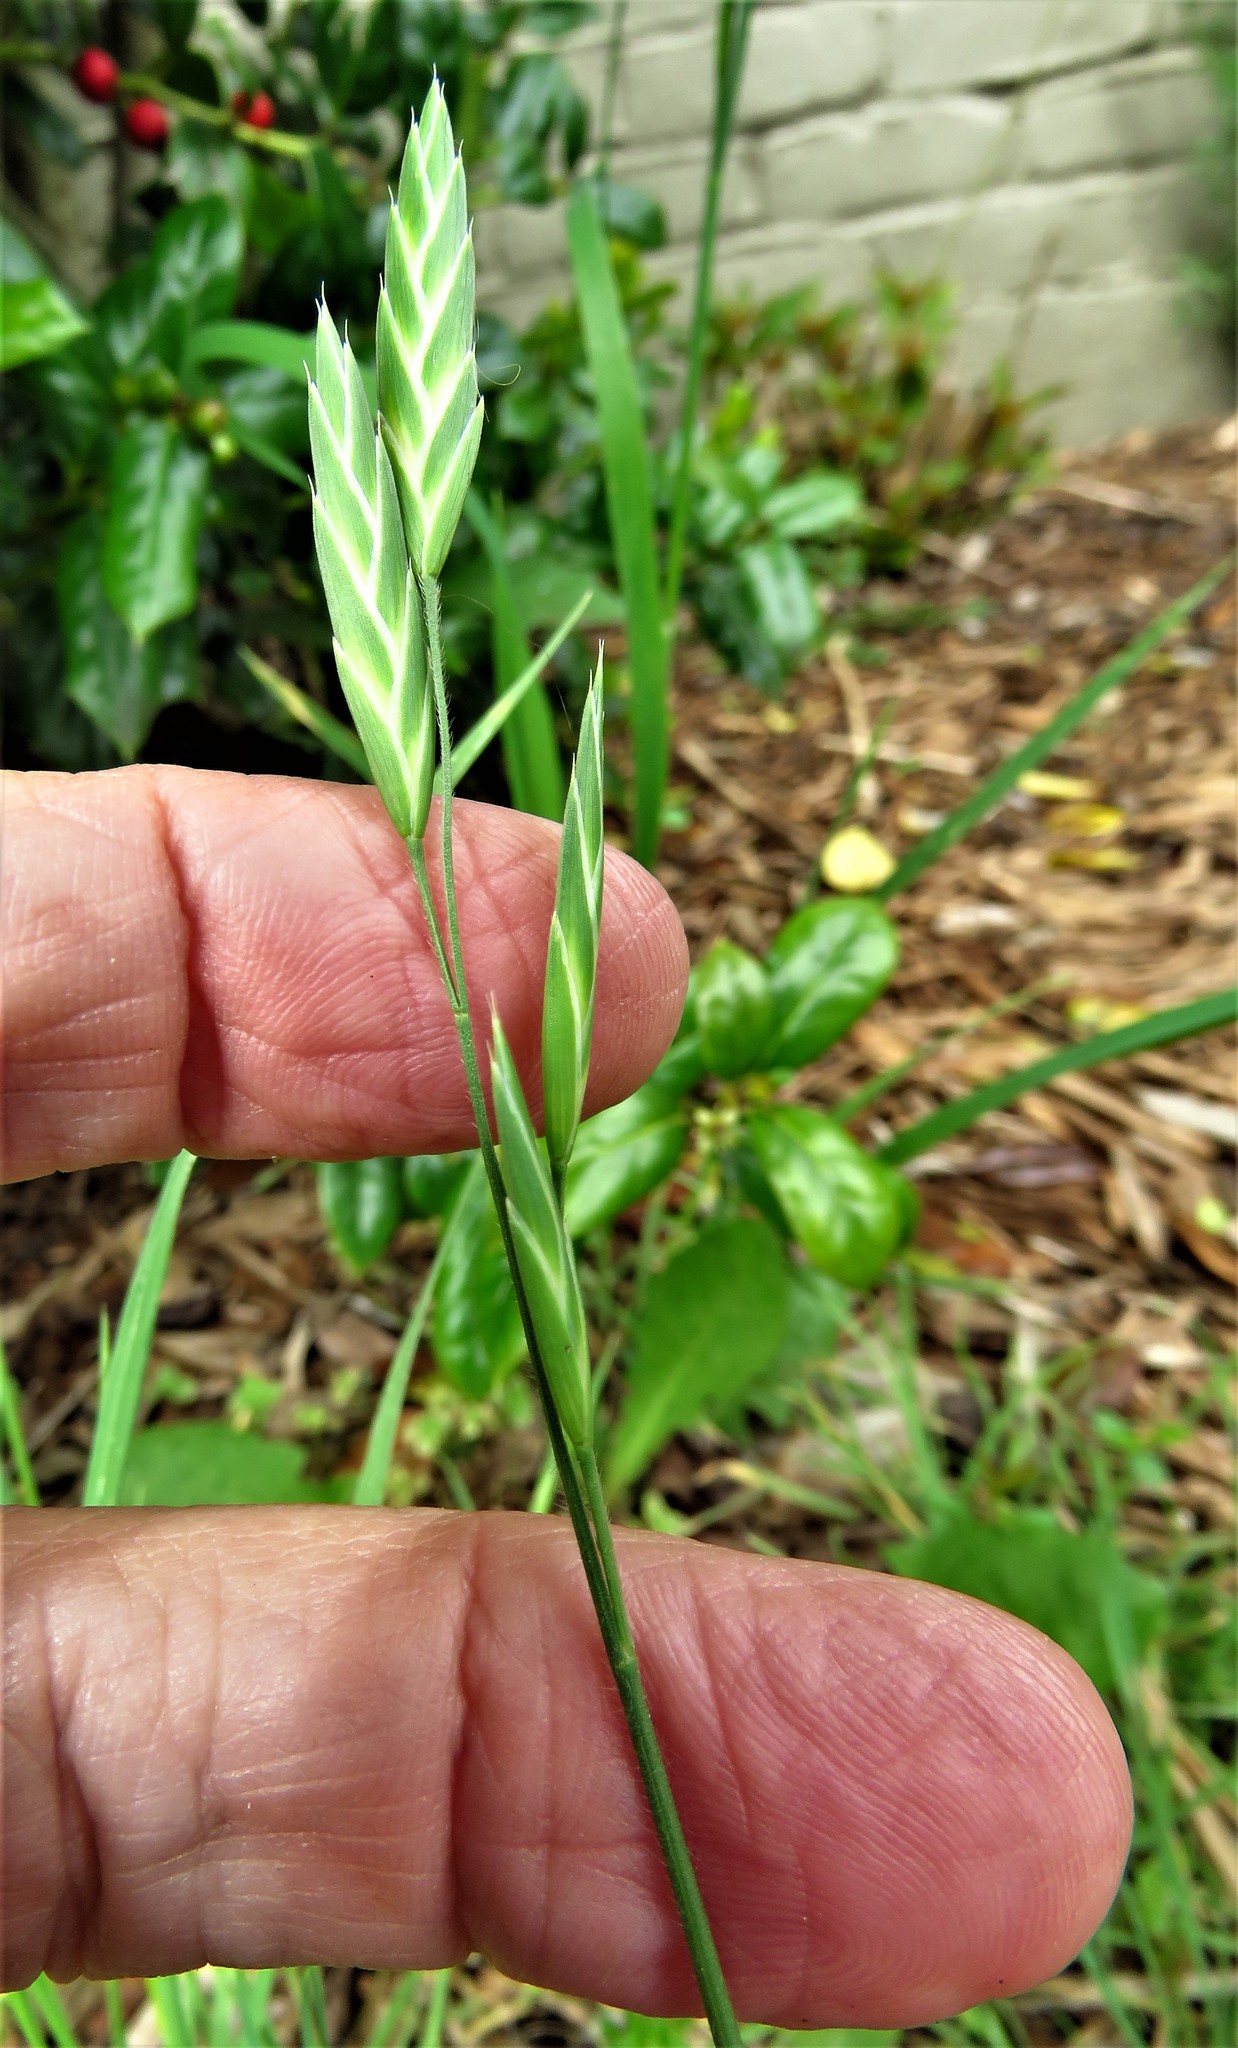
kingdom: Plantae
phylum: Tracheophyta
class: Liliopsida
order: Poales
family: Poaceae
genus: Bromus
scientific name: Bromus catharticus
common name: Rescuegrass
